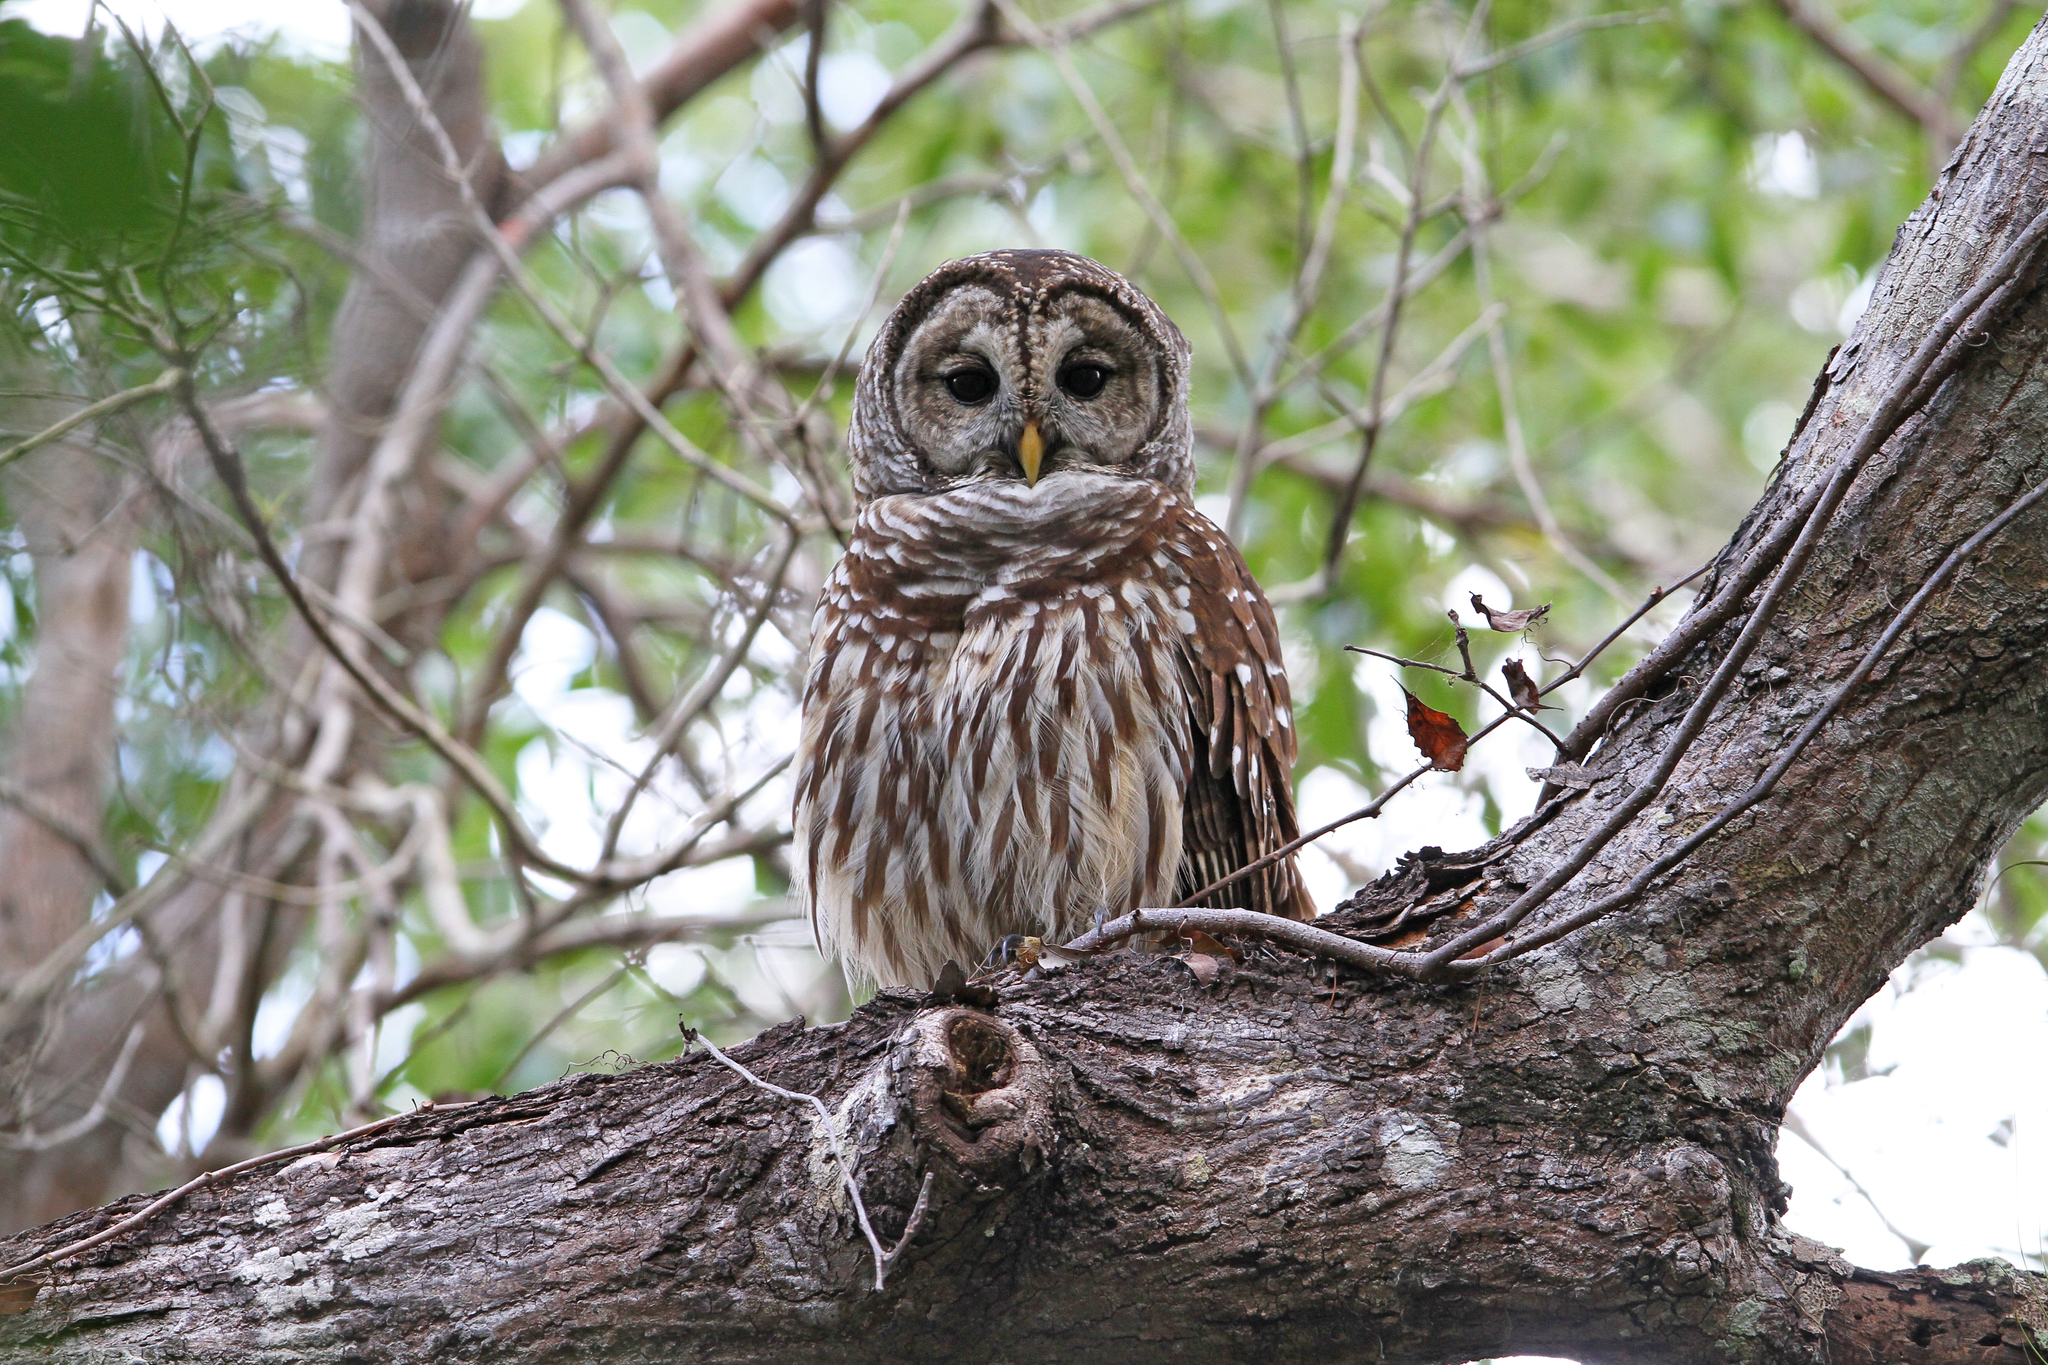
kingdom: Animalia
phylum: Chordata
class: Aves
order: Strigiformes
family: Strigidae
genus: Strix
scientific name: Strix varia
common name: Barred owl
